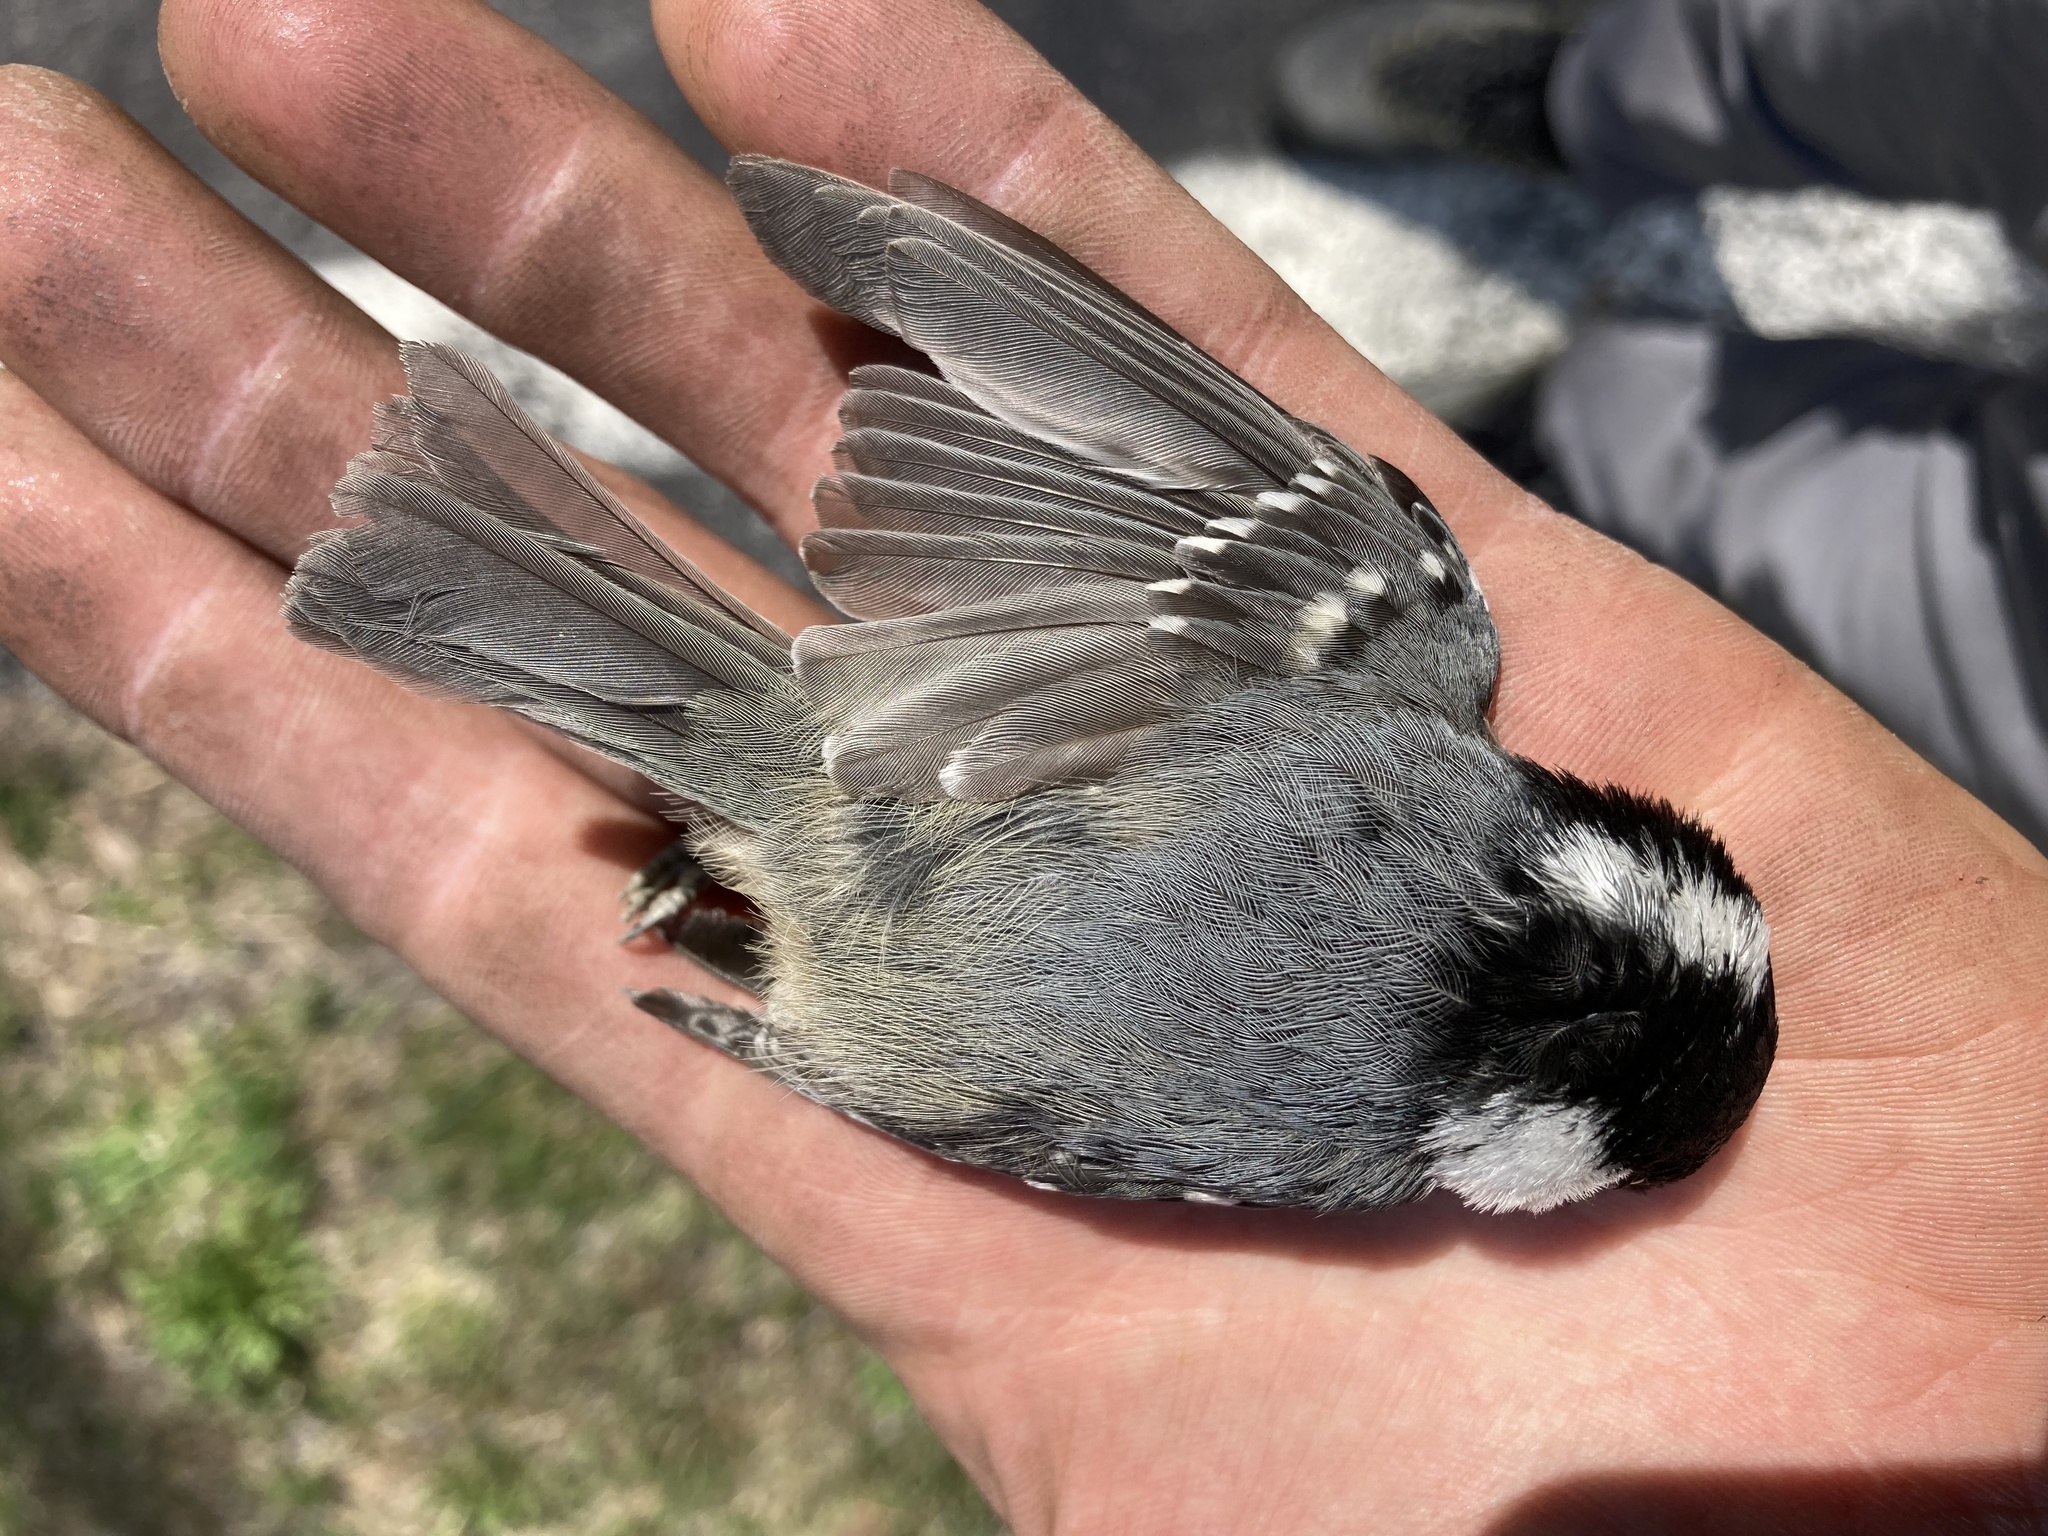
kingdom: Animalia
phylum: Chordata
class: Aves
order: Passeriformes
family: Paridae
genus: Periparus
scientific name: Periparus ater
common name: Coal tit
